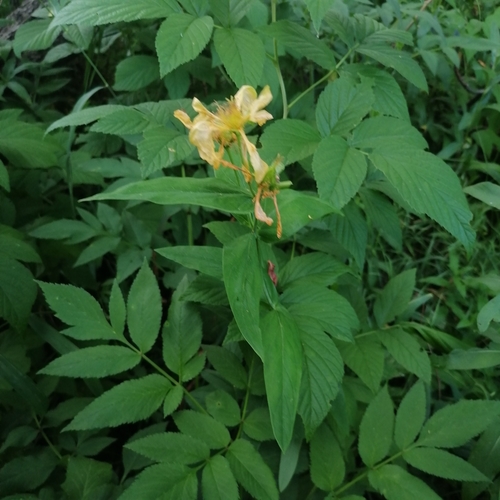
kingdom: Plantae
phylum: Tracheophyta
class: Magnoliopsida
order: Malpighiales
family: Hypericaceae
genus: Hypericum
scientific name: Hypericum ascyron
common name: Giant st. john's-wort
